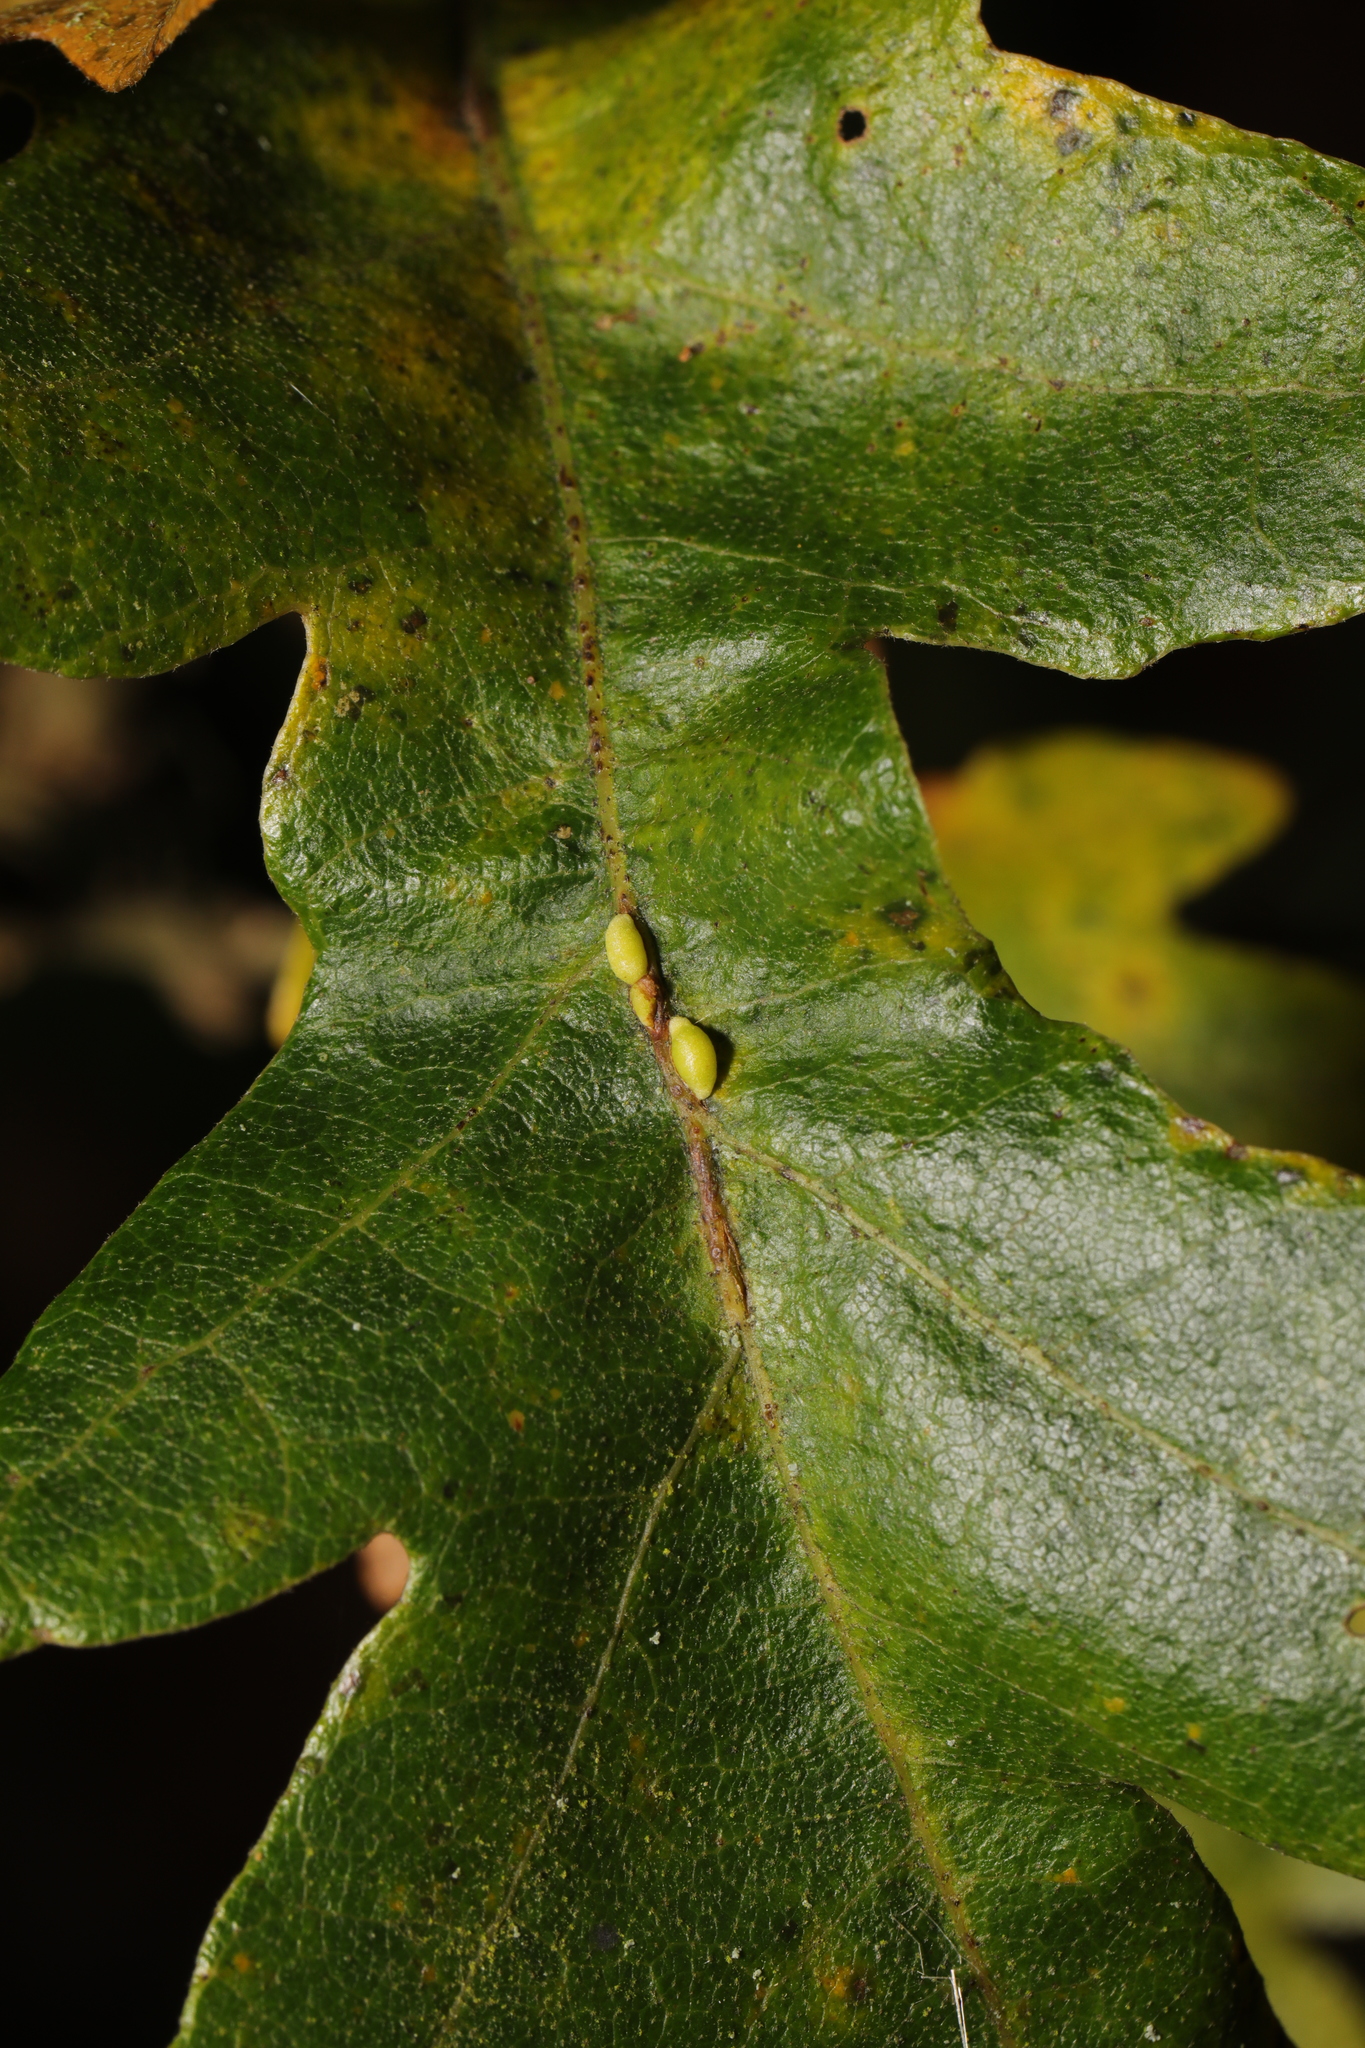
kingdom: Animalia
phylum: Arthropoda
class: Insecta
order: Hymenoptera
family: Cynipidae
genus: Neuroterus
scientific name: Neuroterus saliens
